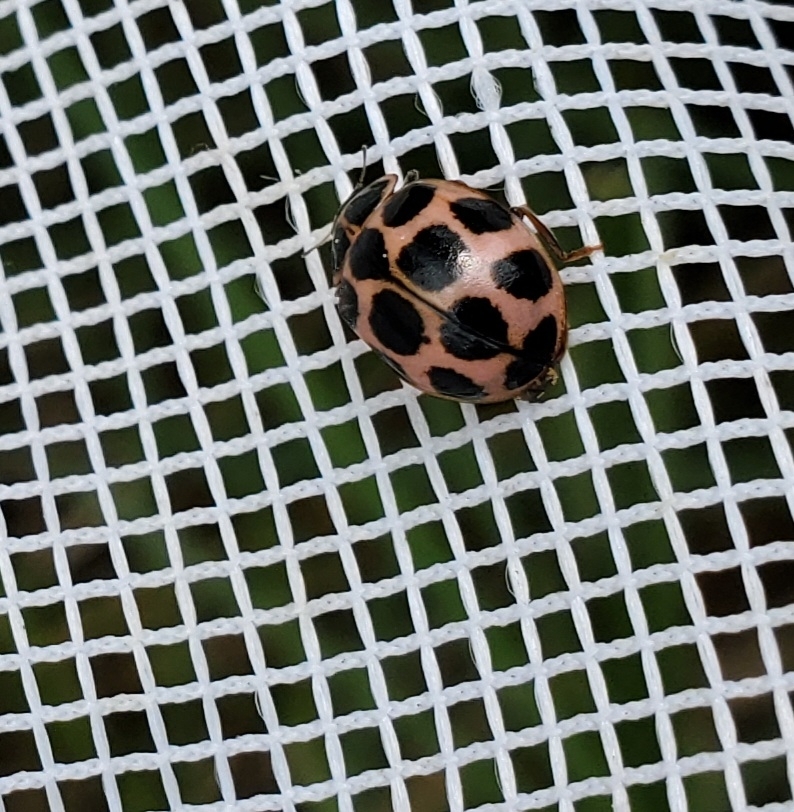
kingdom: Animalia
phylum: Arthropoda
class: Insecta
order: Coleoptera
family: Coccinellidae
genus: Calvia
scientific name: Calvia quatuordecimguttata
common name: Cream-spot ladybird
